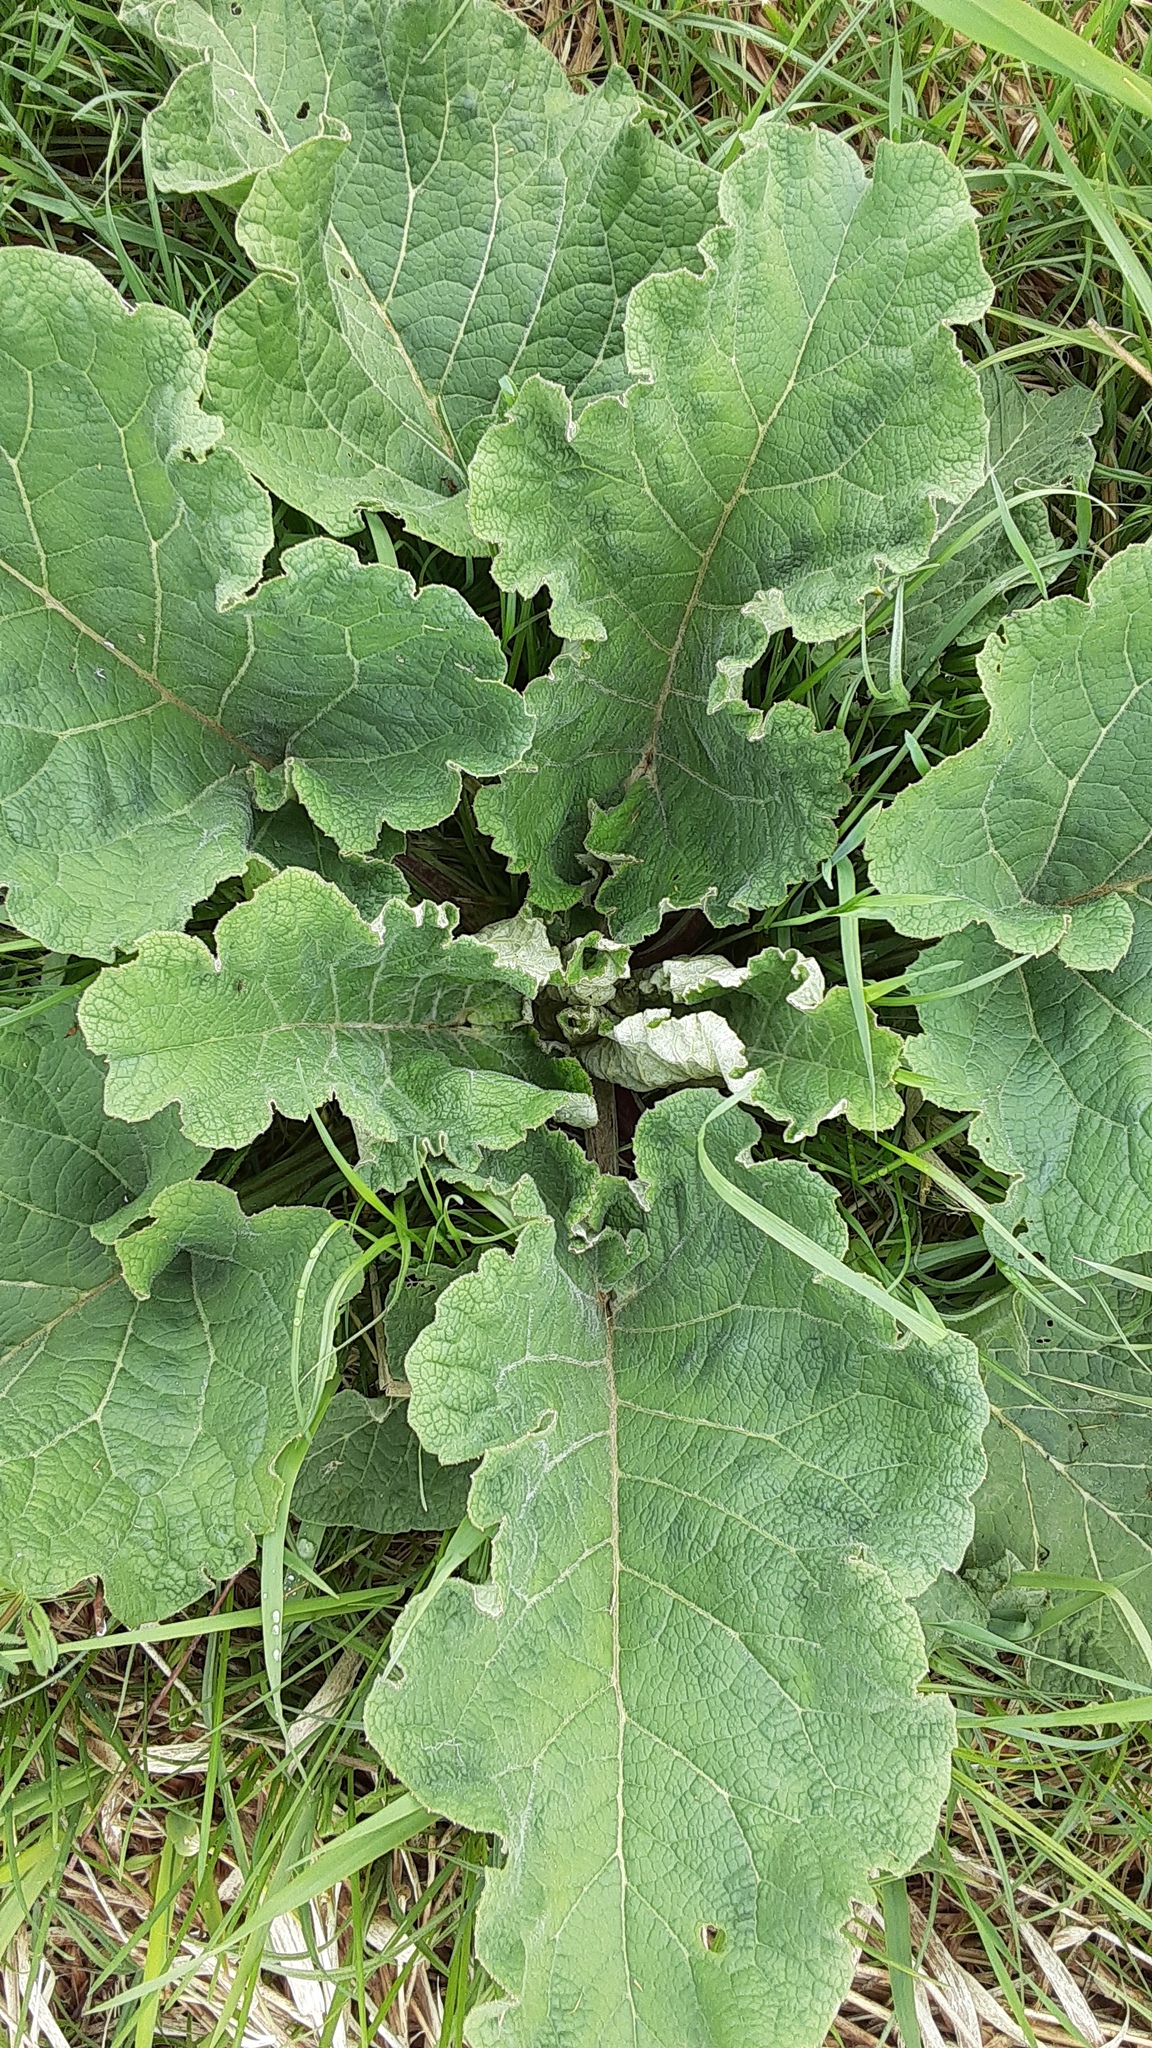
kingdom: Plantae
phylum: Tracheophyta
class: Magnoliopsida
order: Asterales
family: Asteraceae
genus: Arctium
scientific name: Arctium
